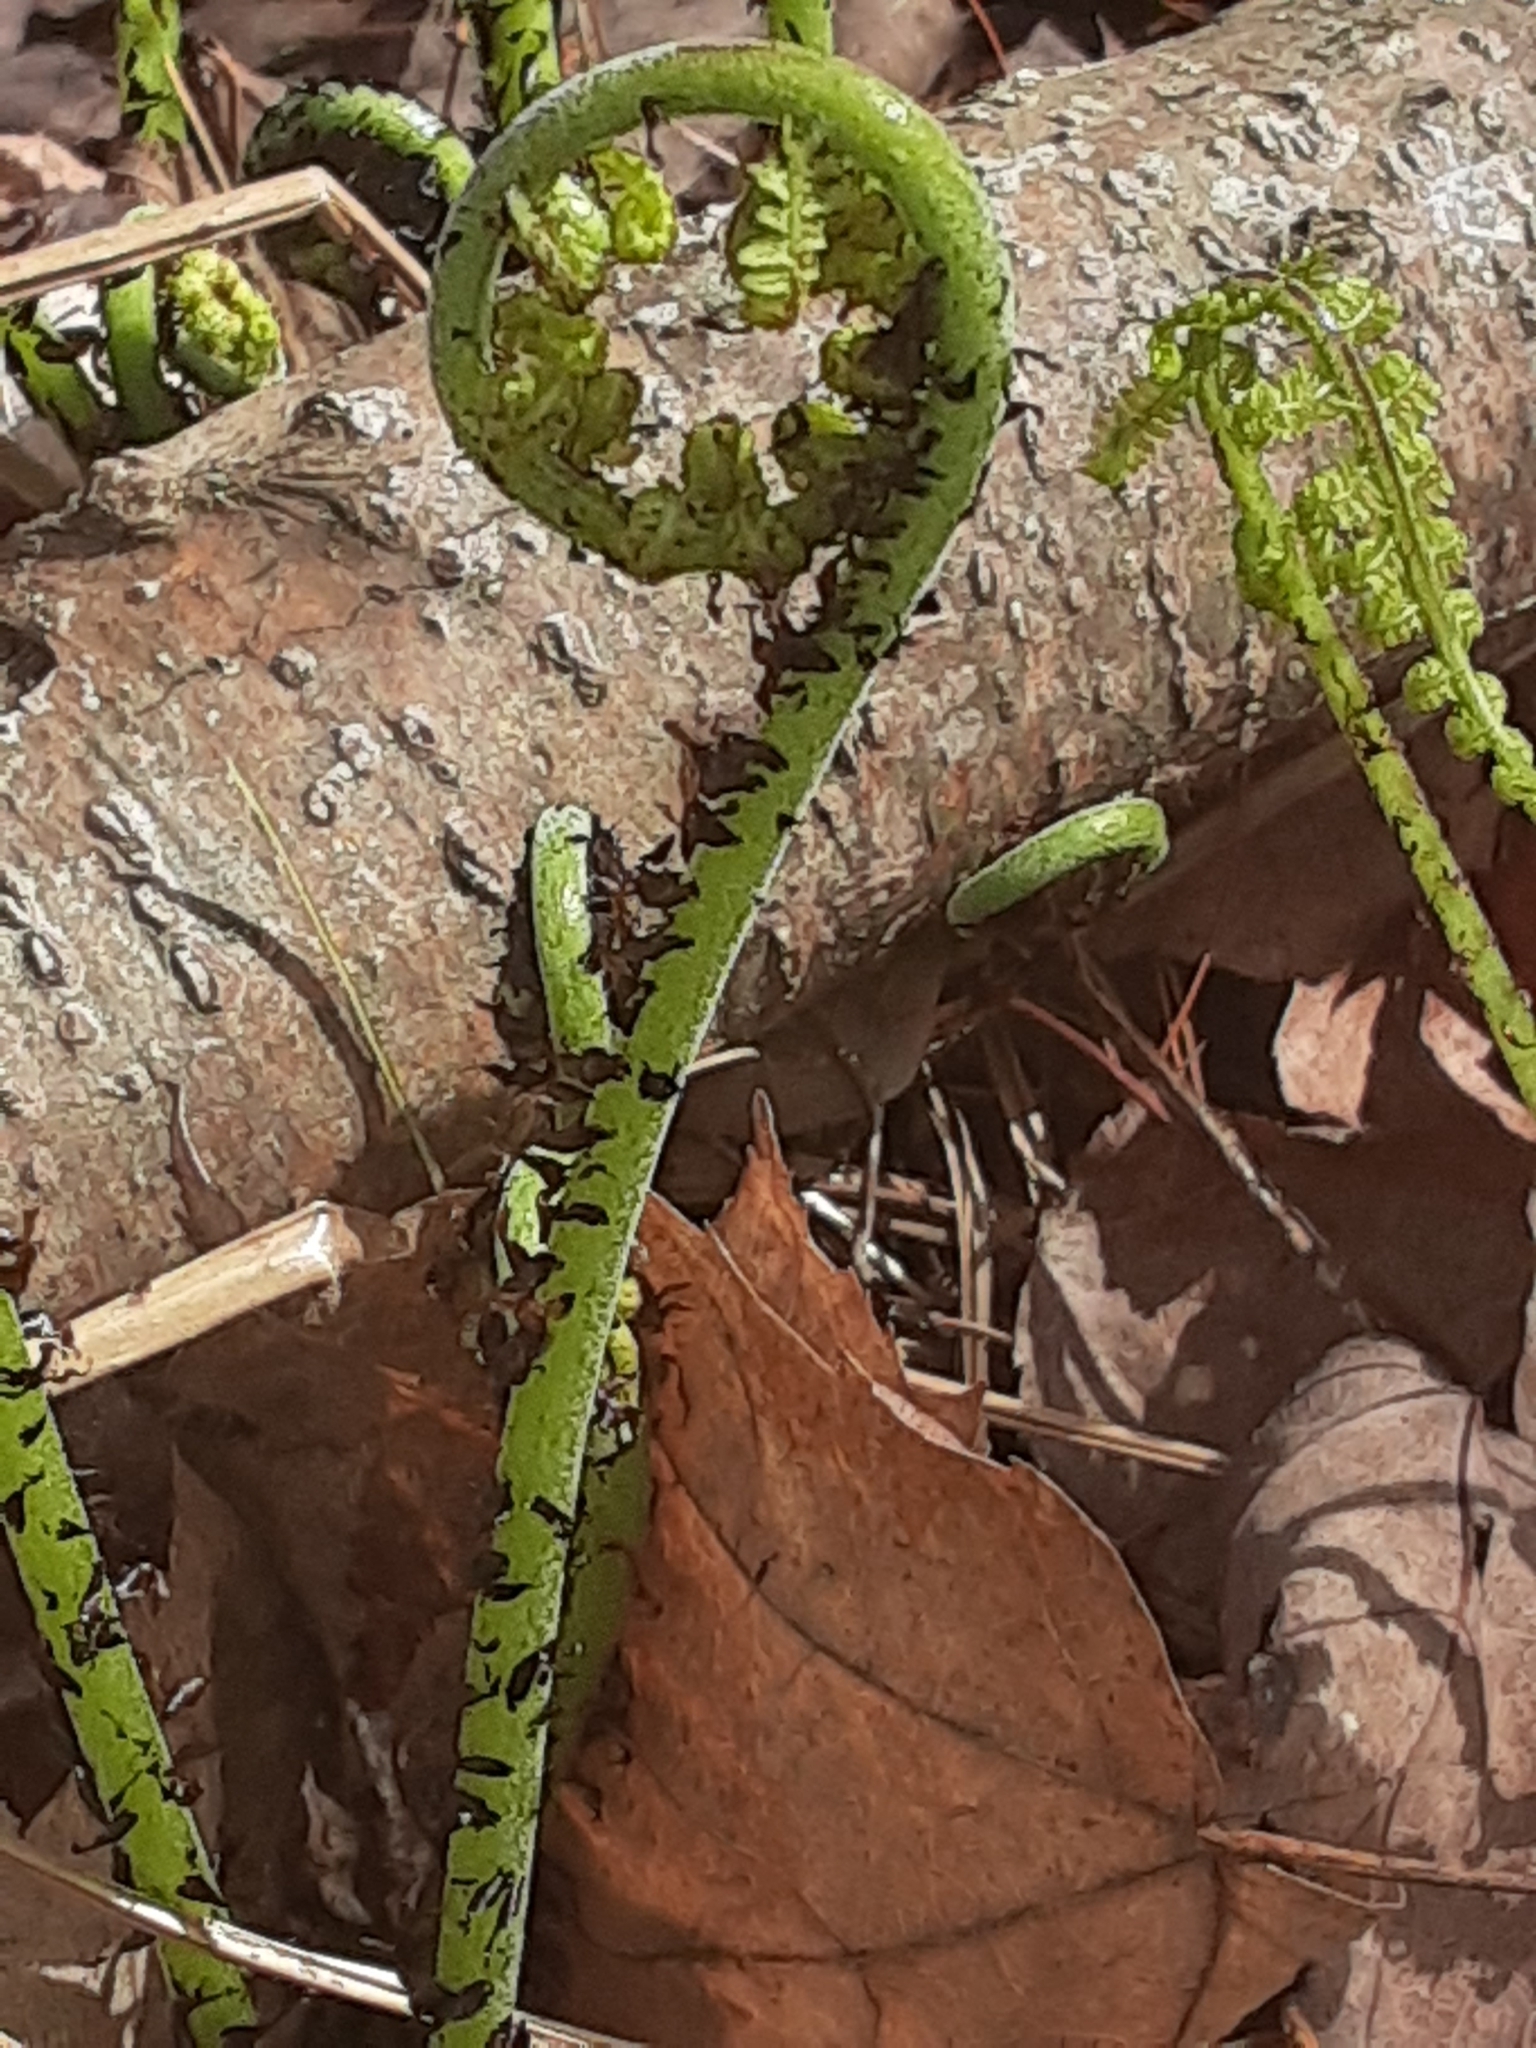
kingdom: Plantae
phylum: Tracheophyta
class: Polypodiopsida
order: Polypodiales
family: Athyriaceae
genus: Athyrium
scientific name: Athyrium angustum
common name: Northern lady fern
